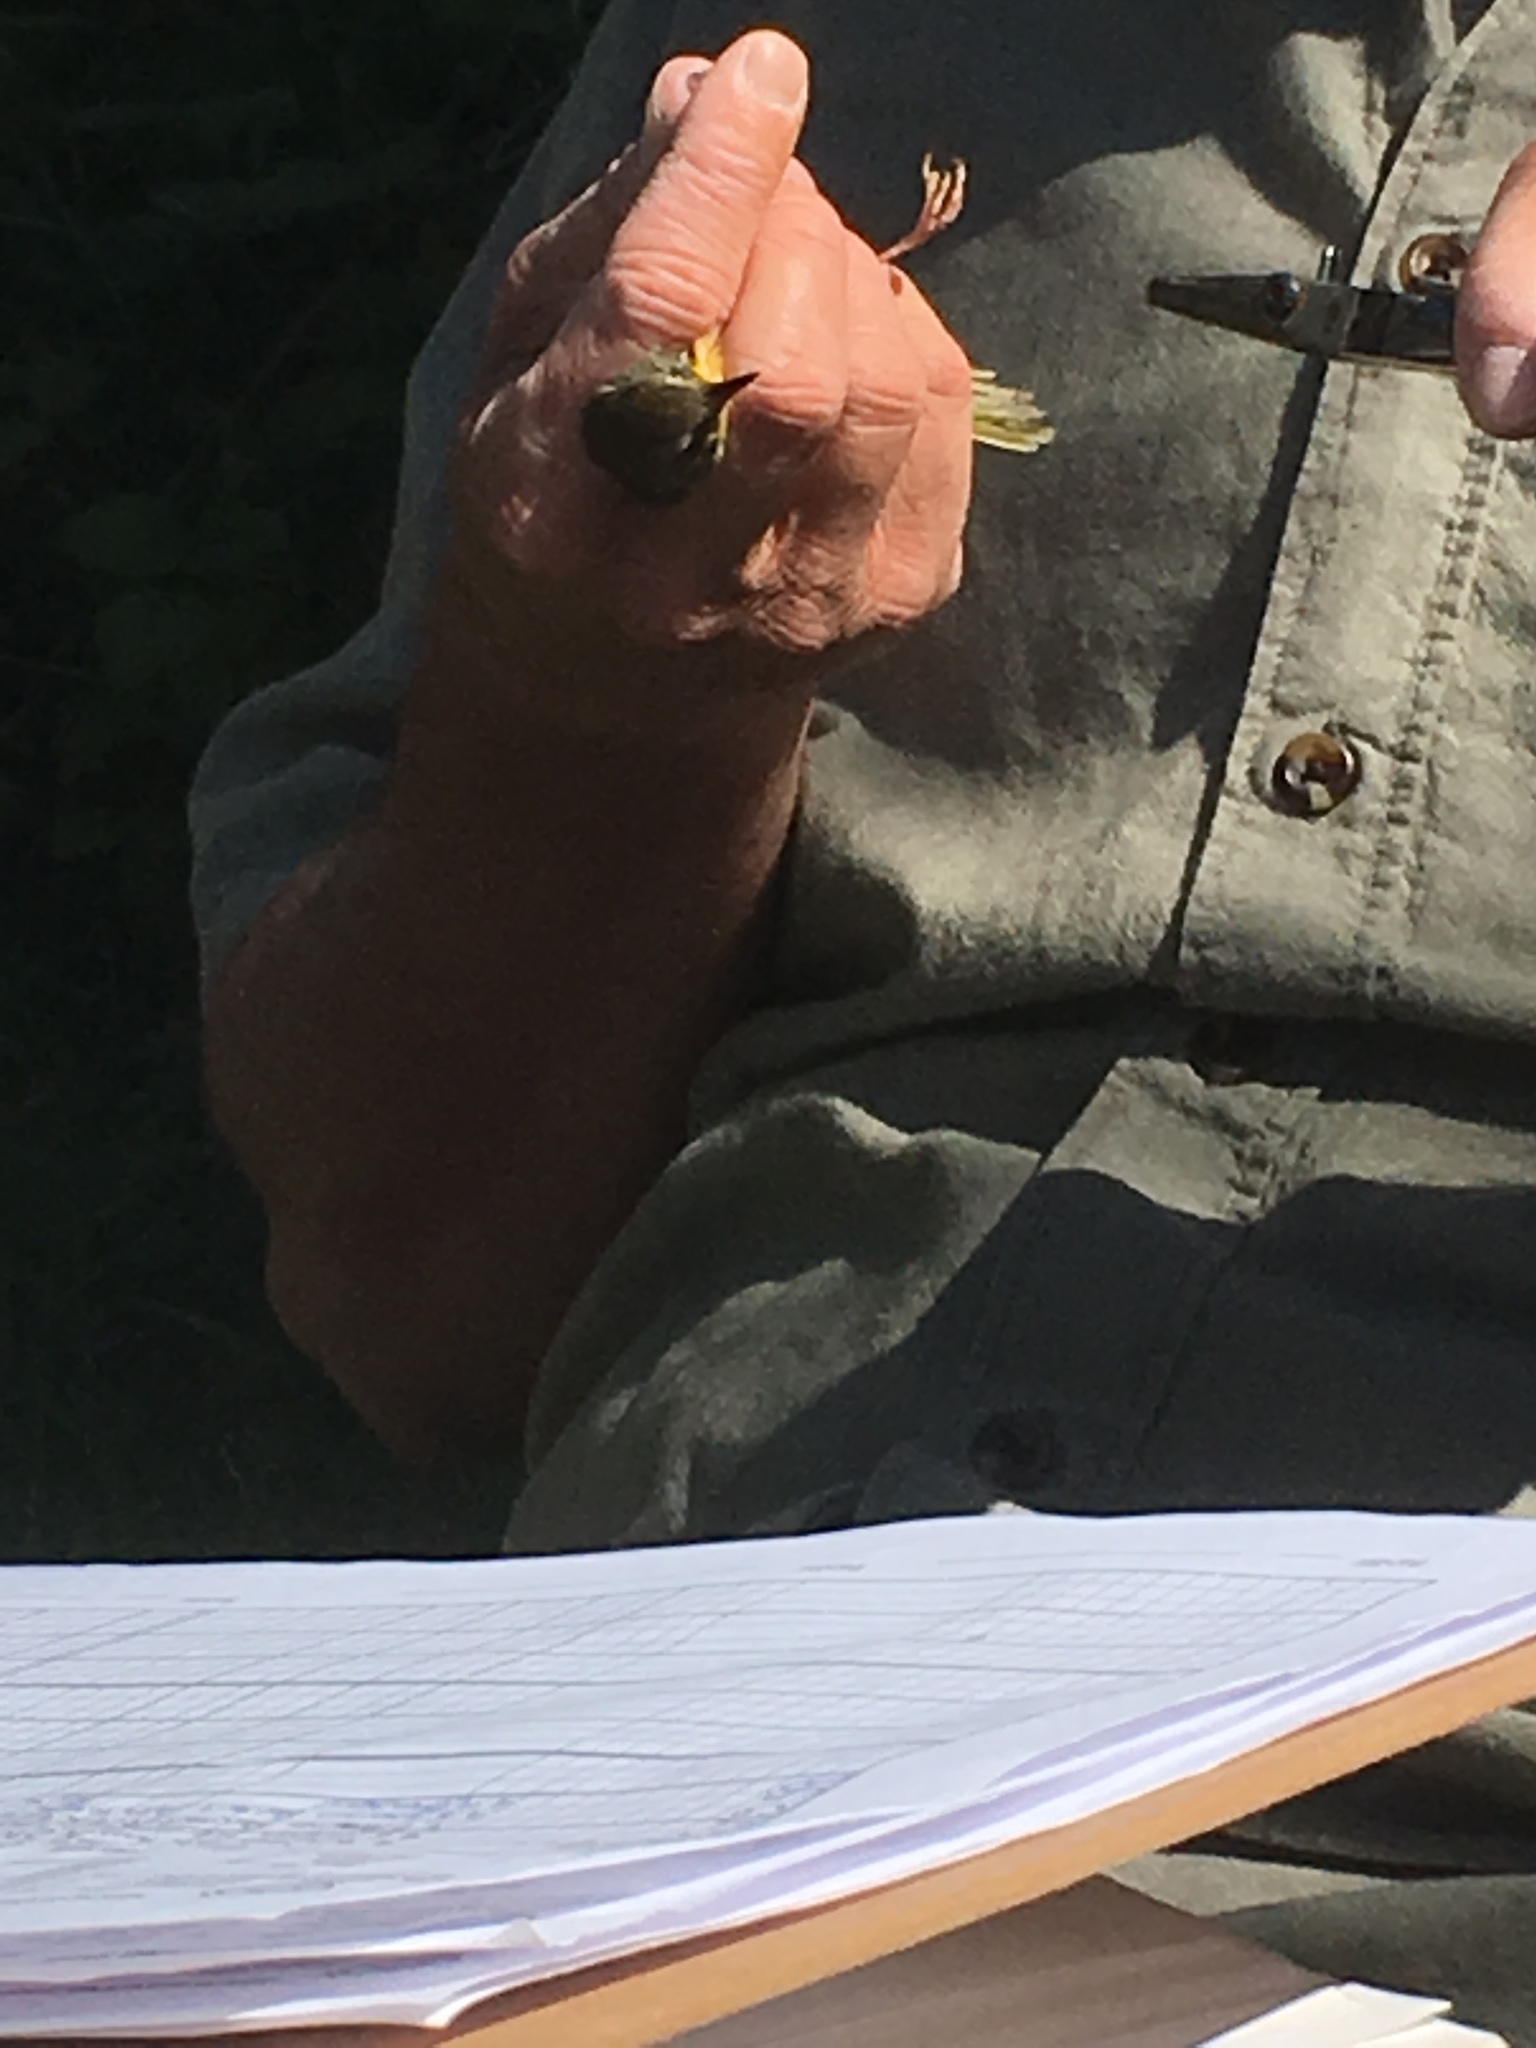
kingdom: Animalia
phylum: Chordata
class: Aves
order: Passeriformes
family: Parulidae
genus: Geothlypis
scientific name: Geothlypis trichas
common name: Common yellowthroat
